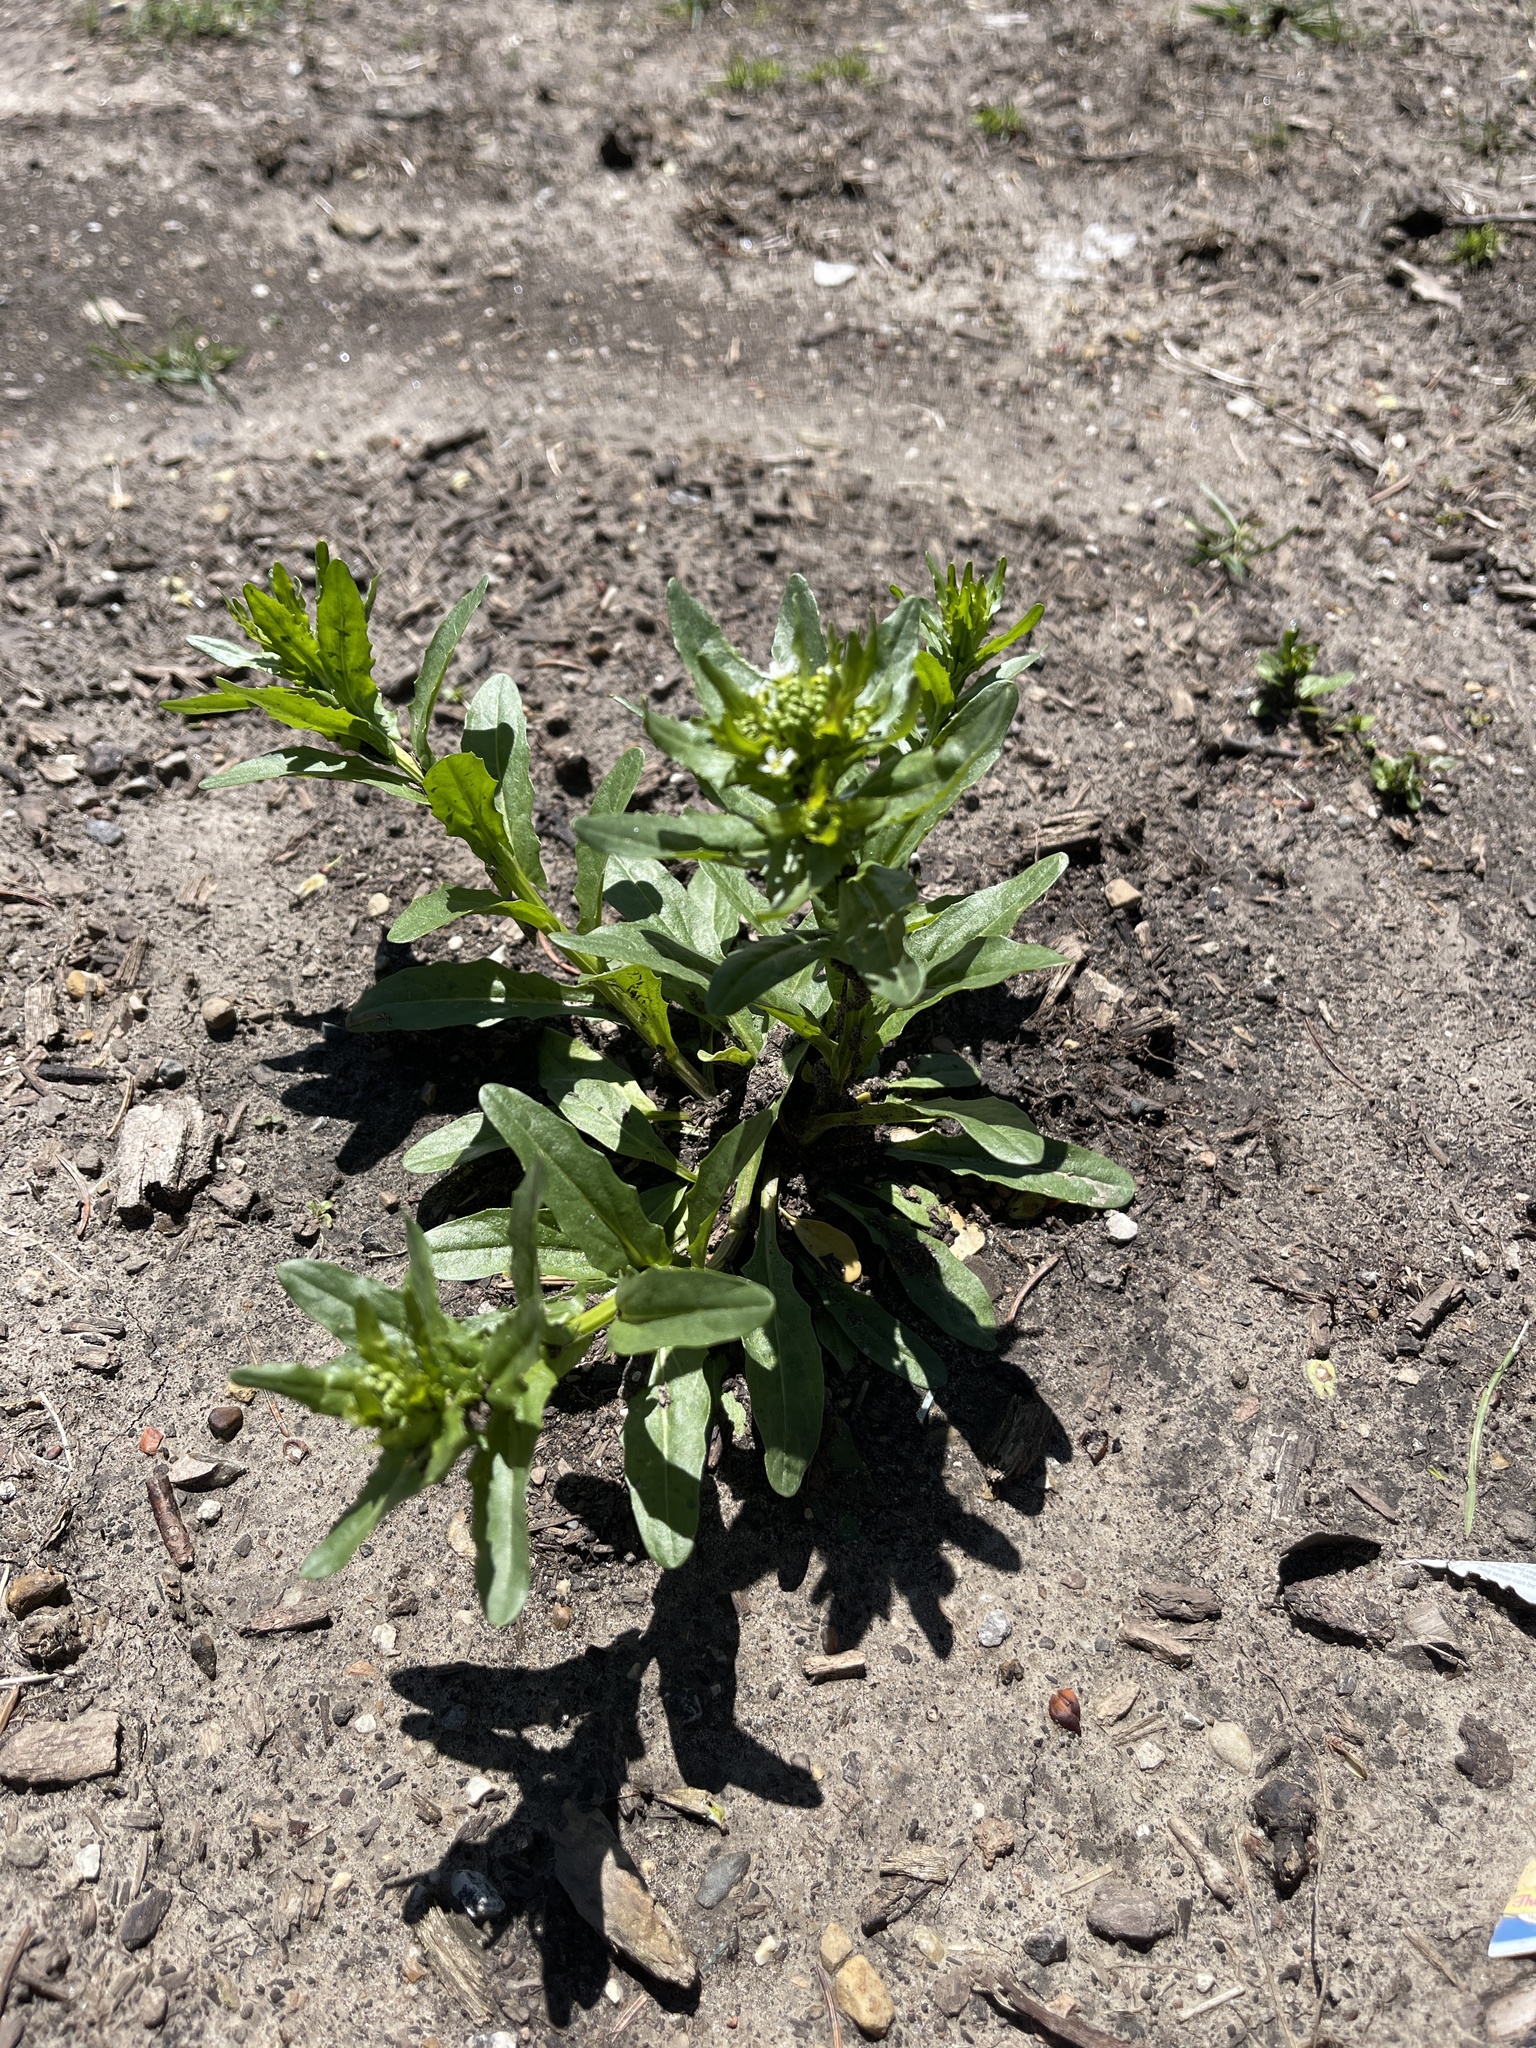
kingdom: Plantae
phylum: Tracheophyta
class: Magnoliopsida
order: Brassicales
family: Brassicaceae
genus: Thlaspi
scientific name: Thlaspi arvense
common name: Field pennycress
